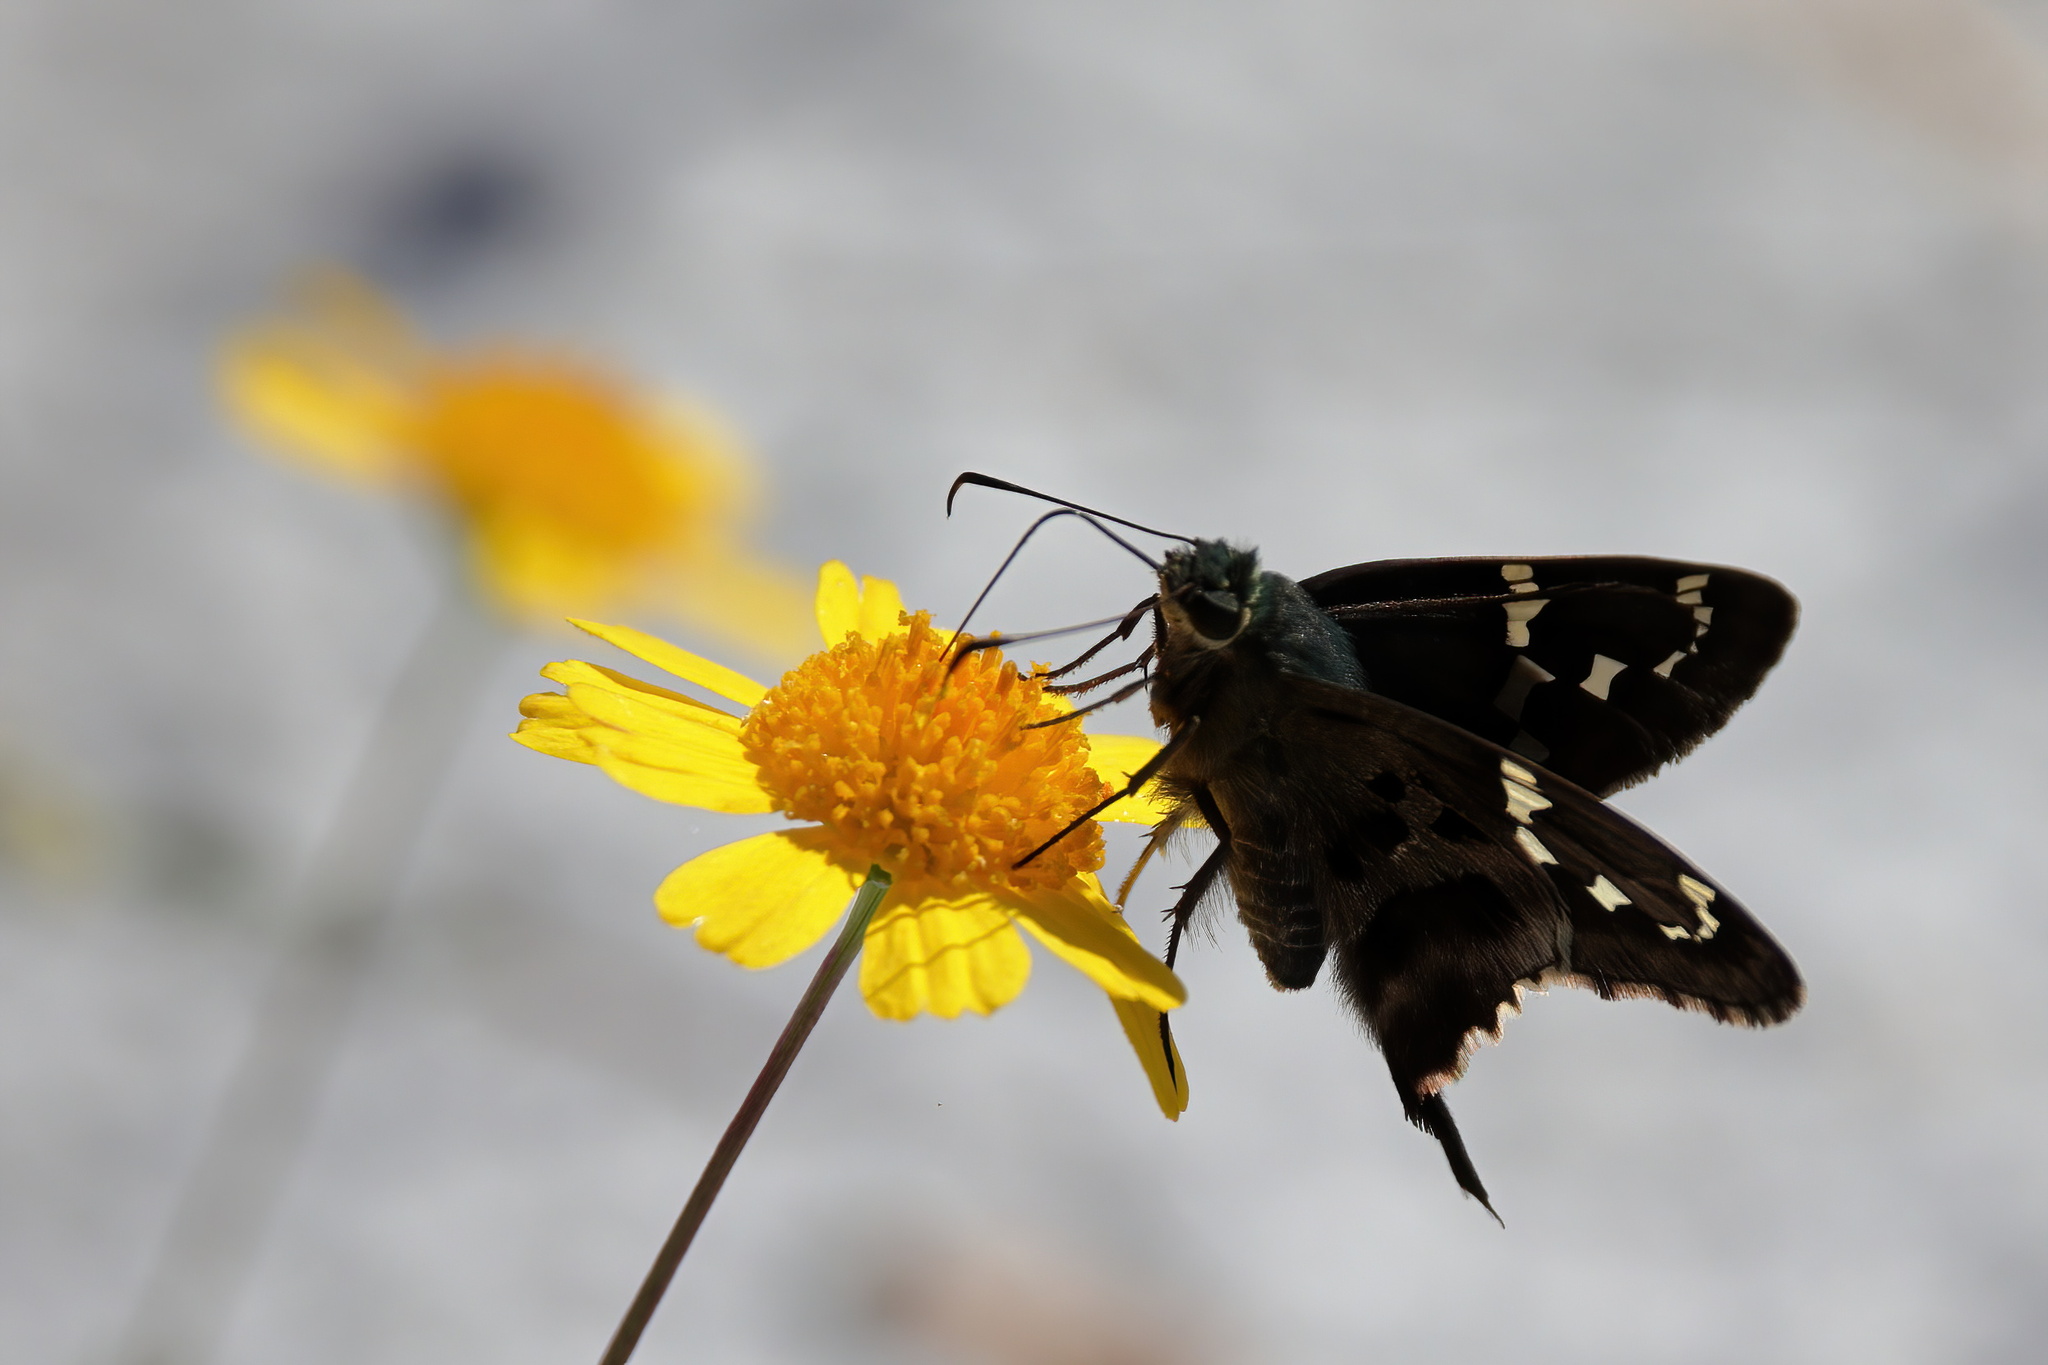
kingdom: Animalia
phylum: Arthropoda
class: Insecta
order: Lepidoptera
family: Hesperiidae
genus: Urbanus
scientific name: Urbanus proteus
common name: Long-tailed skipper
